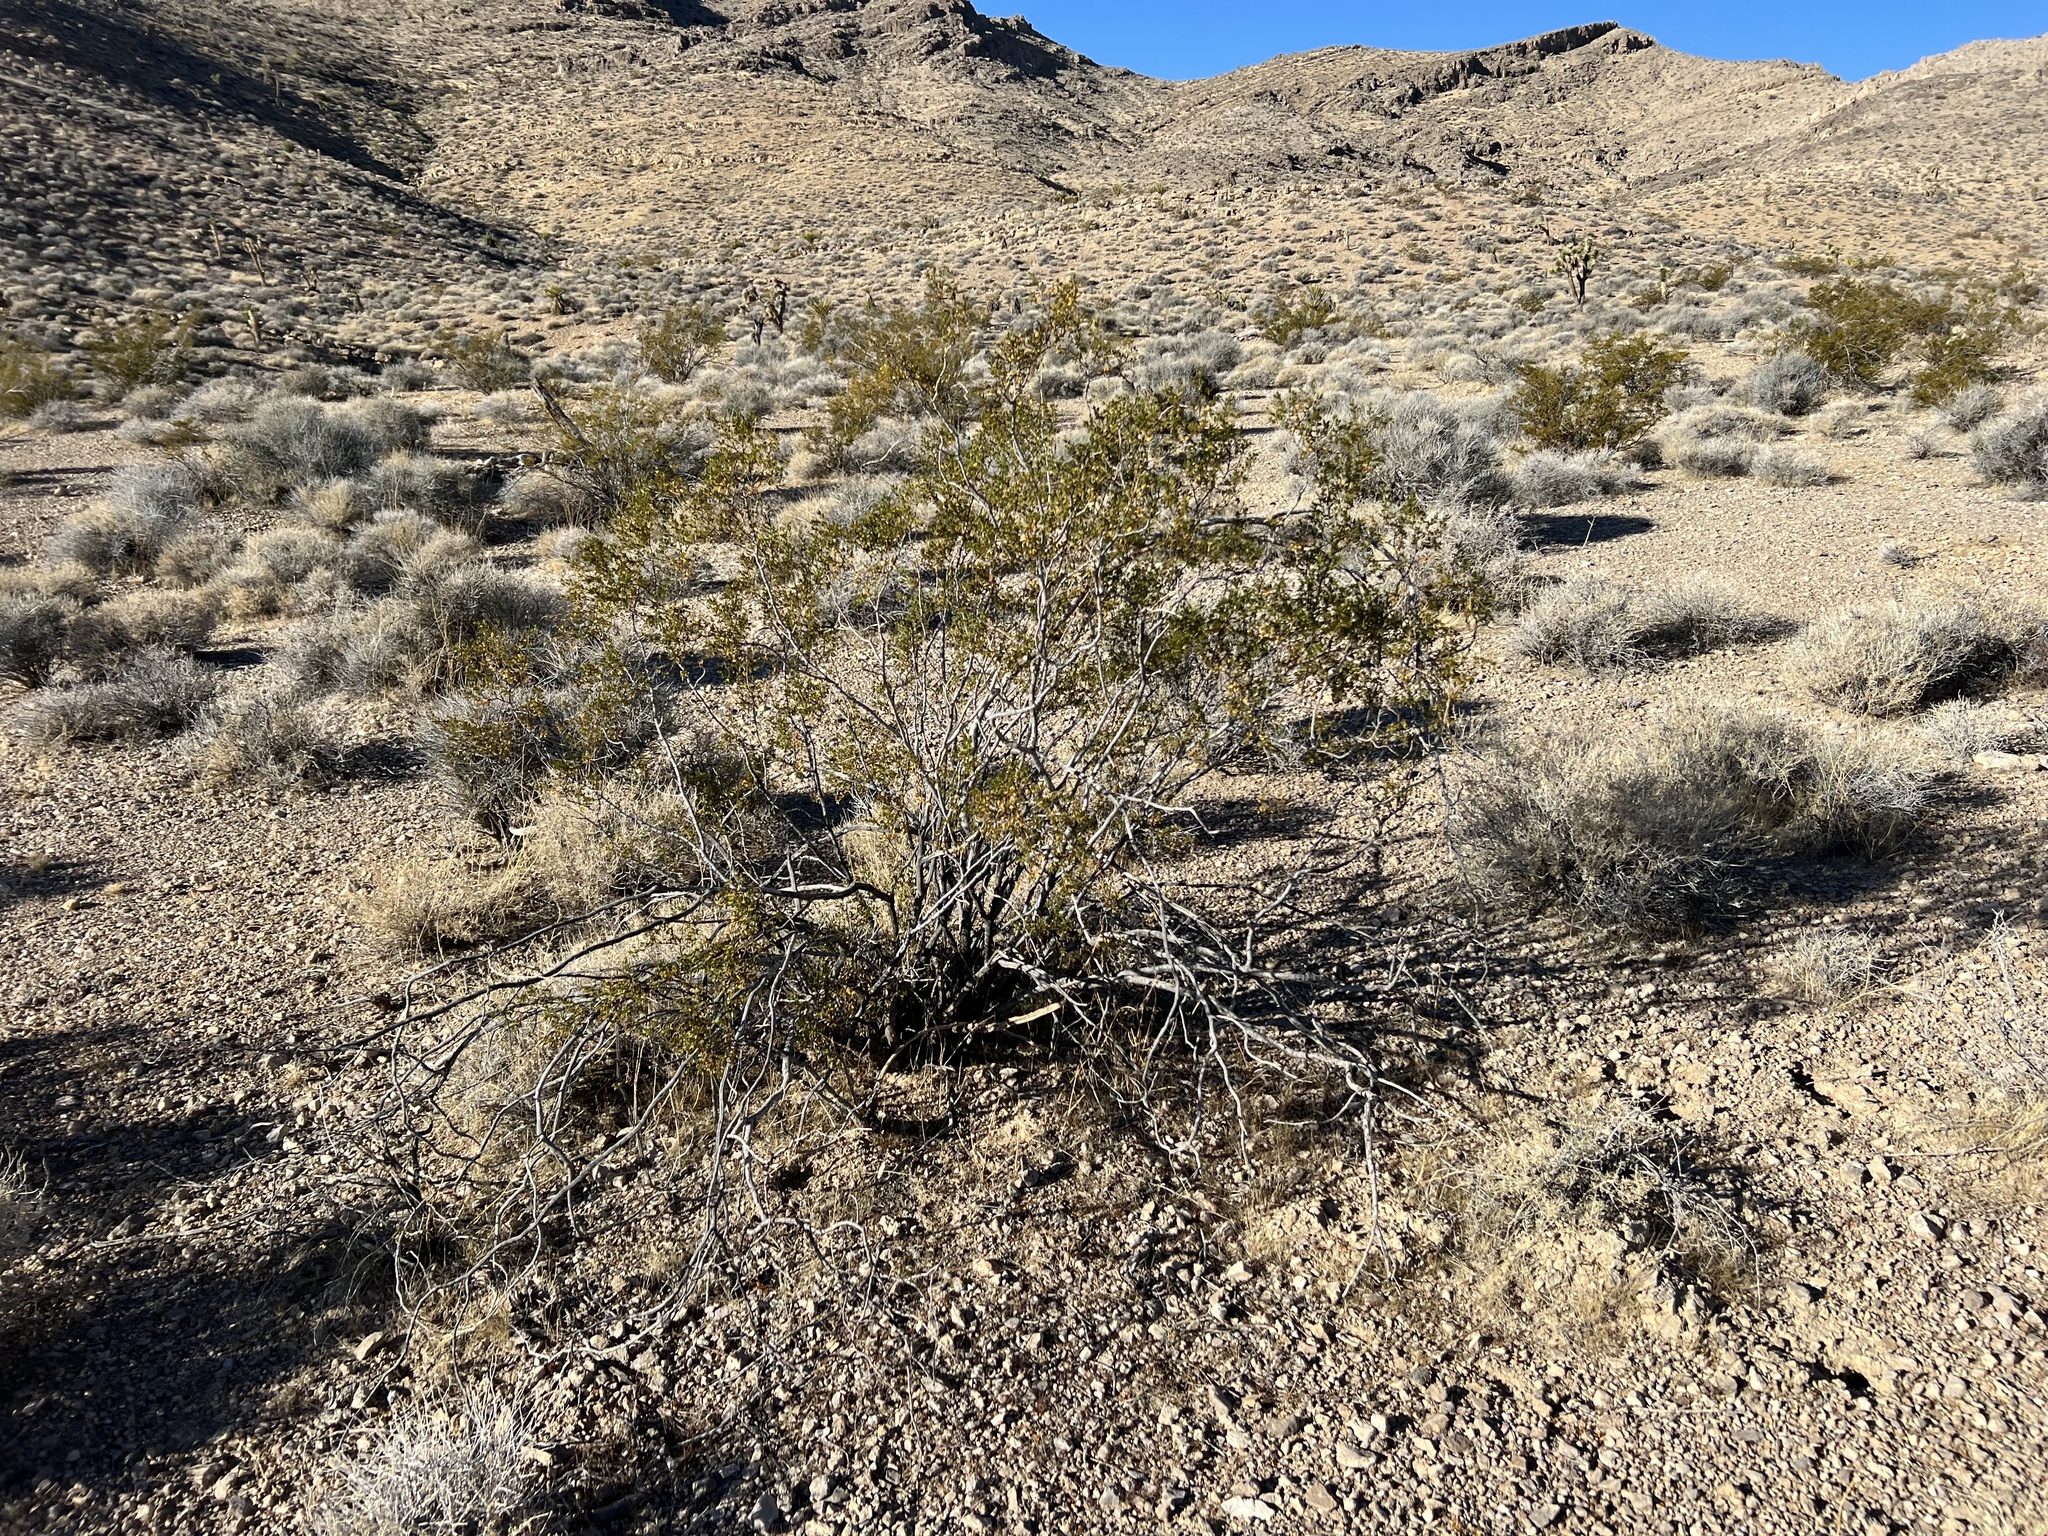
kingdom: Plantae
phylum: Tracheophyta
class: Magnoliopsida
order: Zygophyllales
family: Zygophyllaceae
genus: Larrea
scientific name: Larrea tridentata
